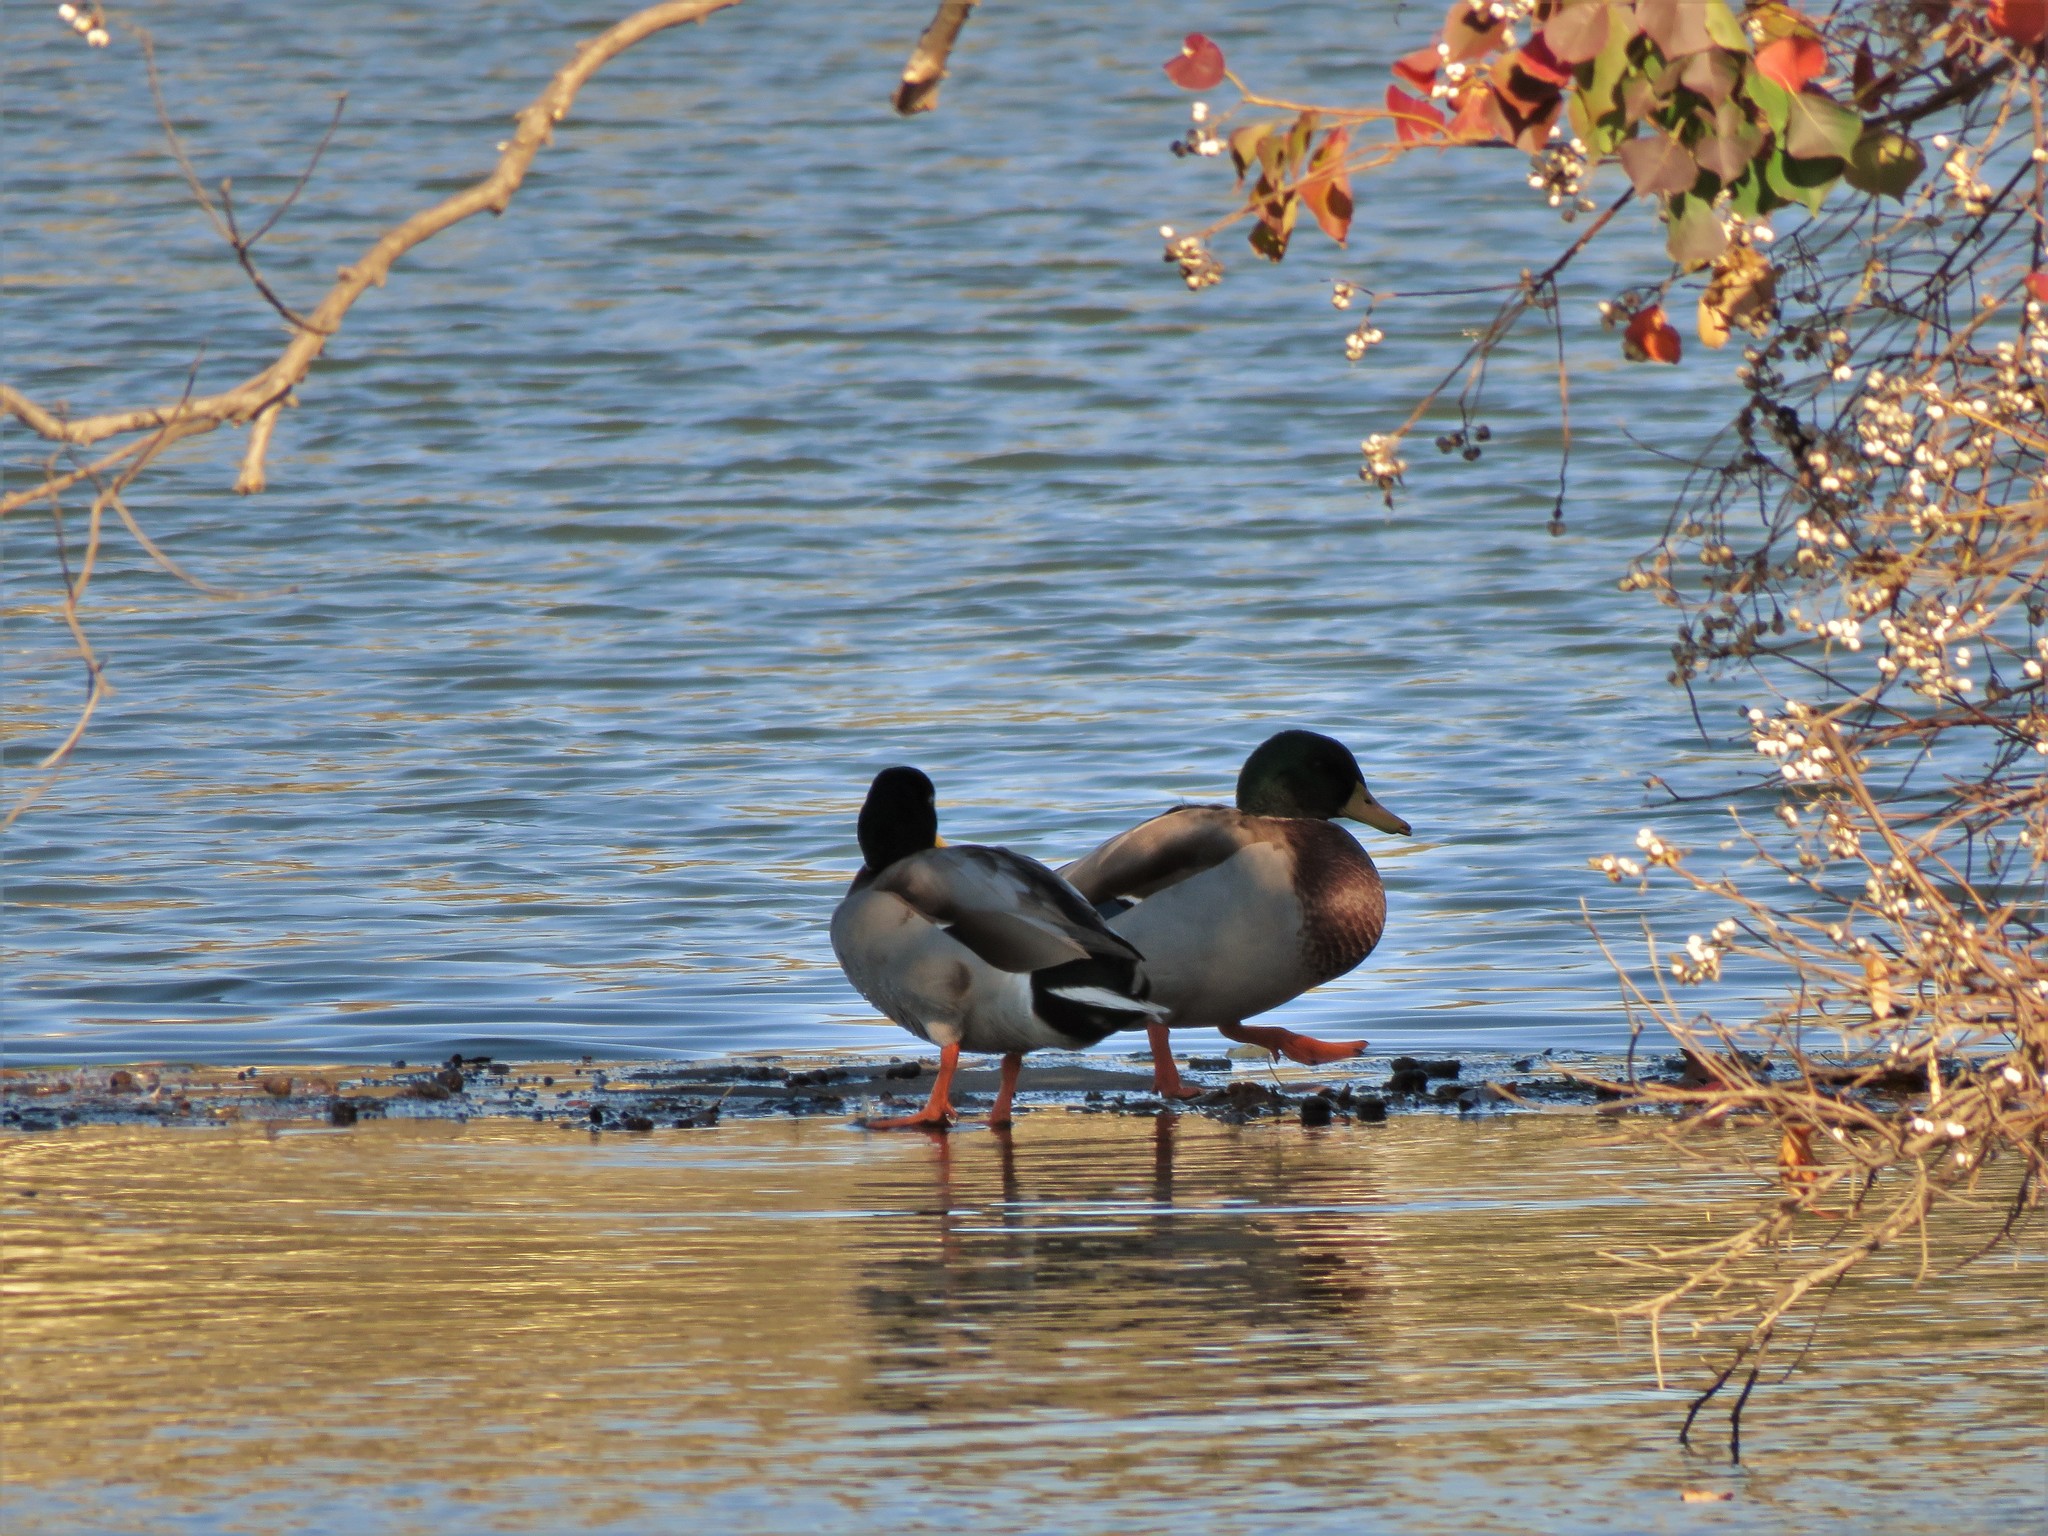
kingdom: Animalia
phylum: Chordata
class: Aves
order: Anseriformes
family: Anatidae
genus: Anas
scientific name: Anas platyrhynchos
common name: Mallard
